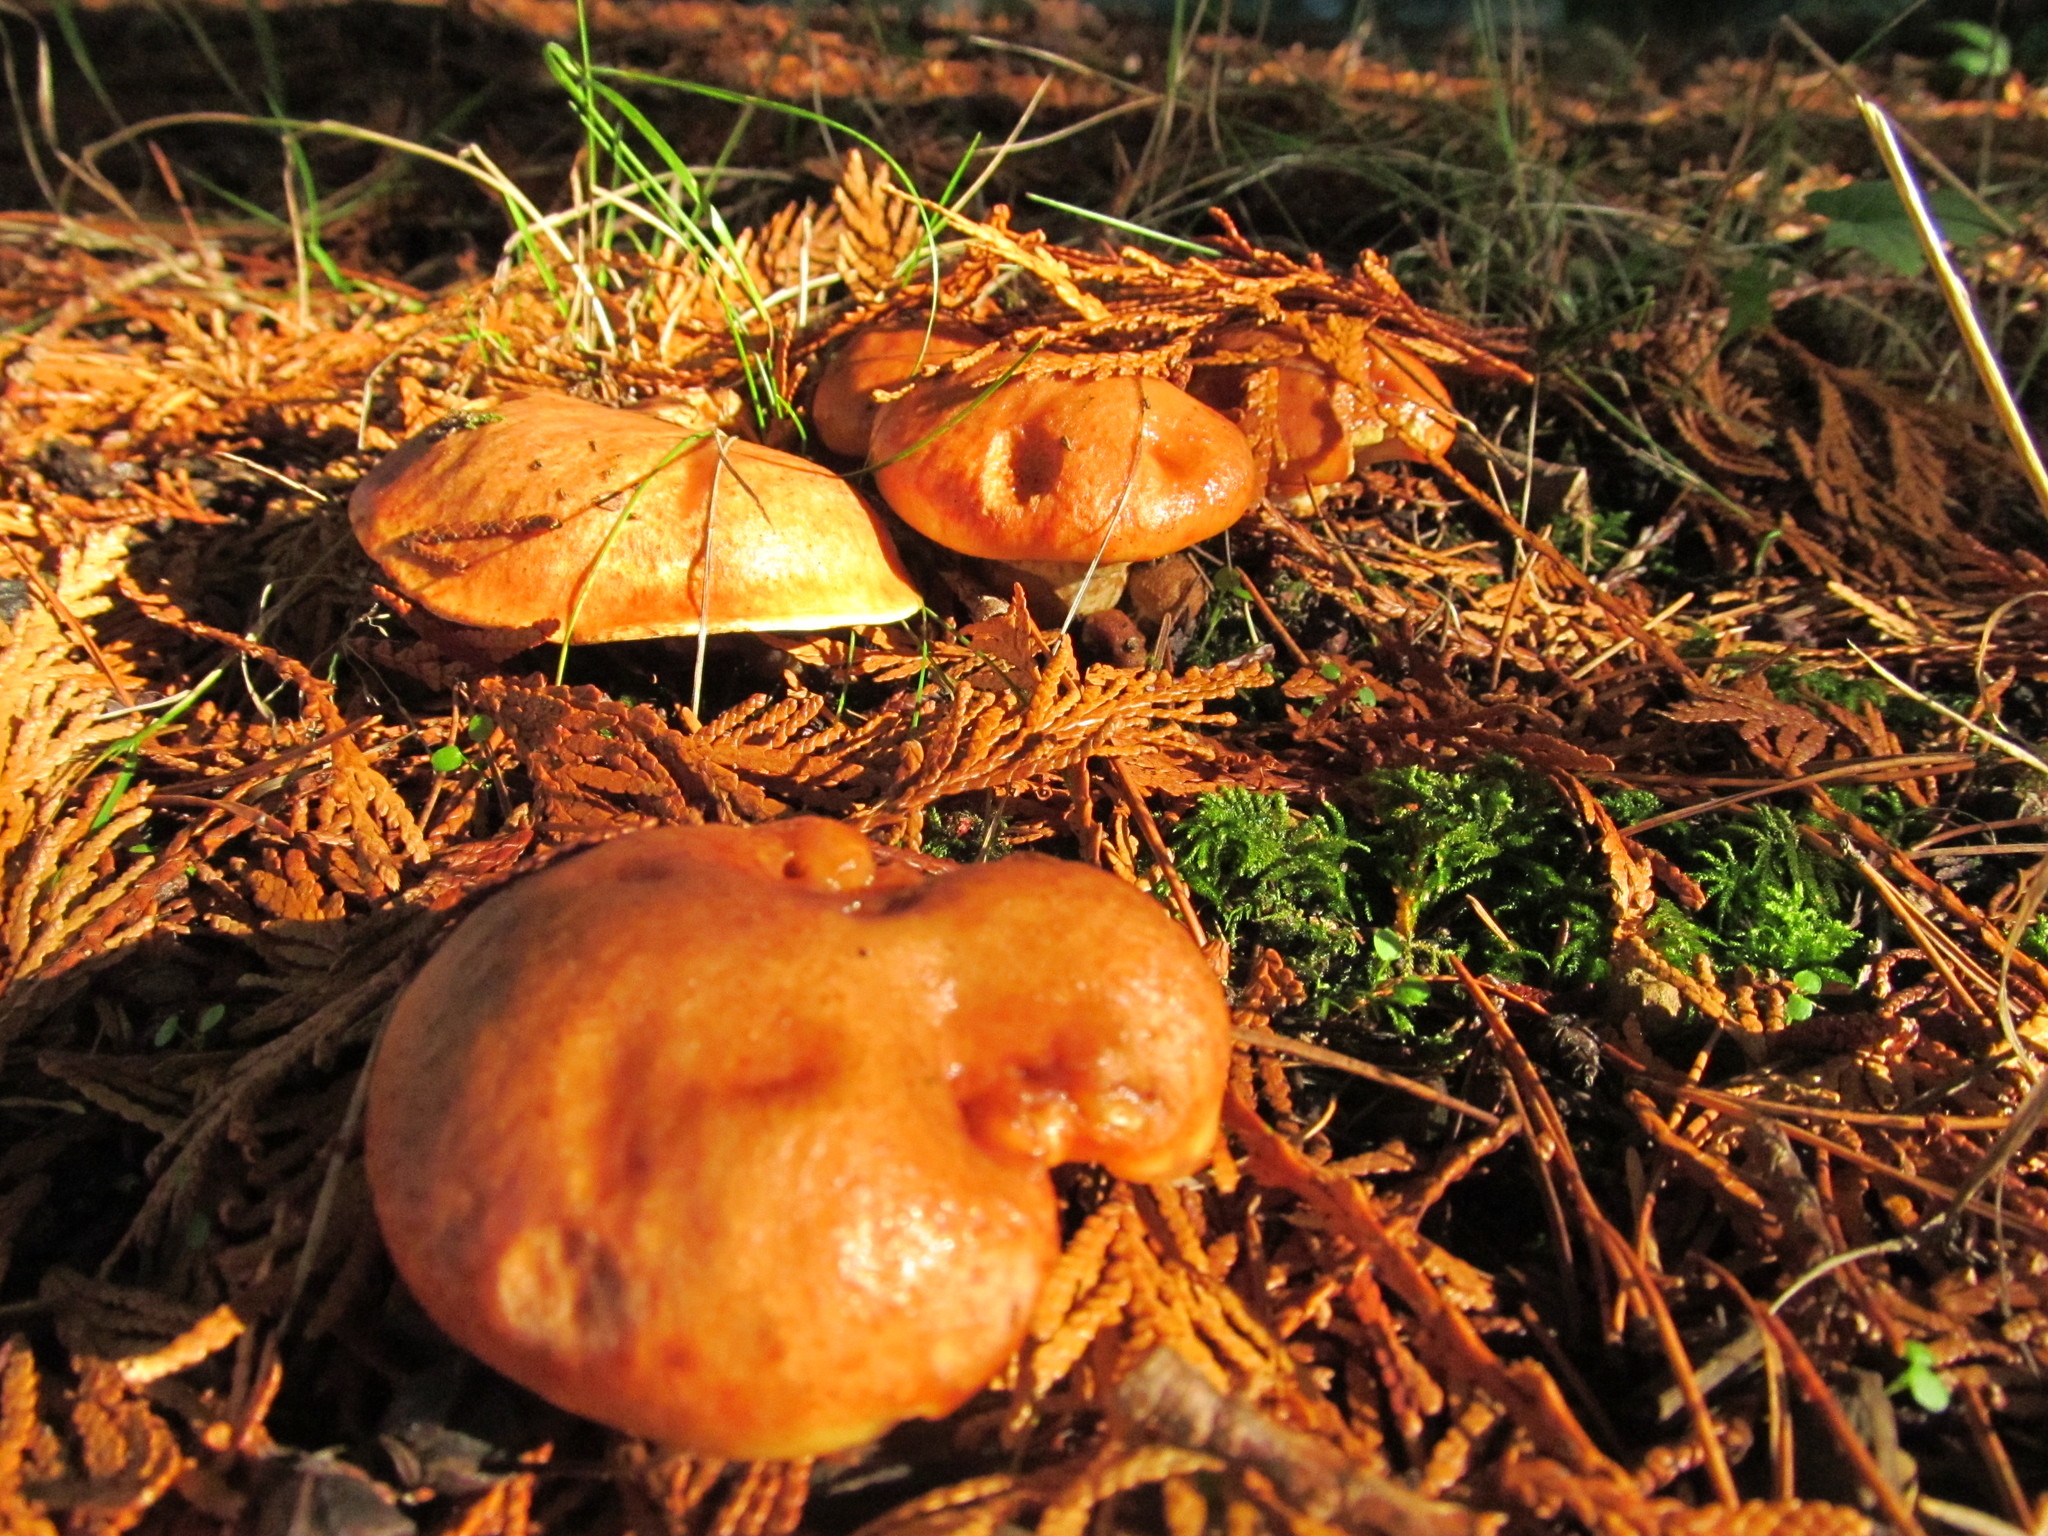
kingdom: Fungi
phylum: Basidiomycota
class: Agaricomycetes
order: Boletales
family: Suillaceae
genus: Suillus
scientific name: Suillus caerulescens
